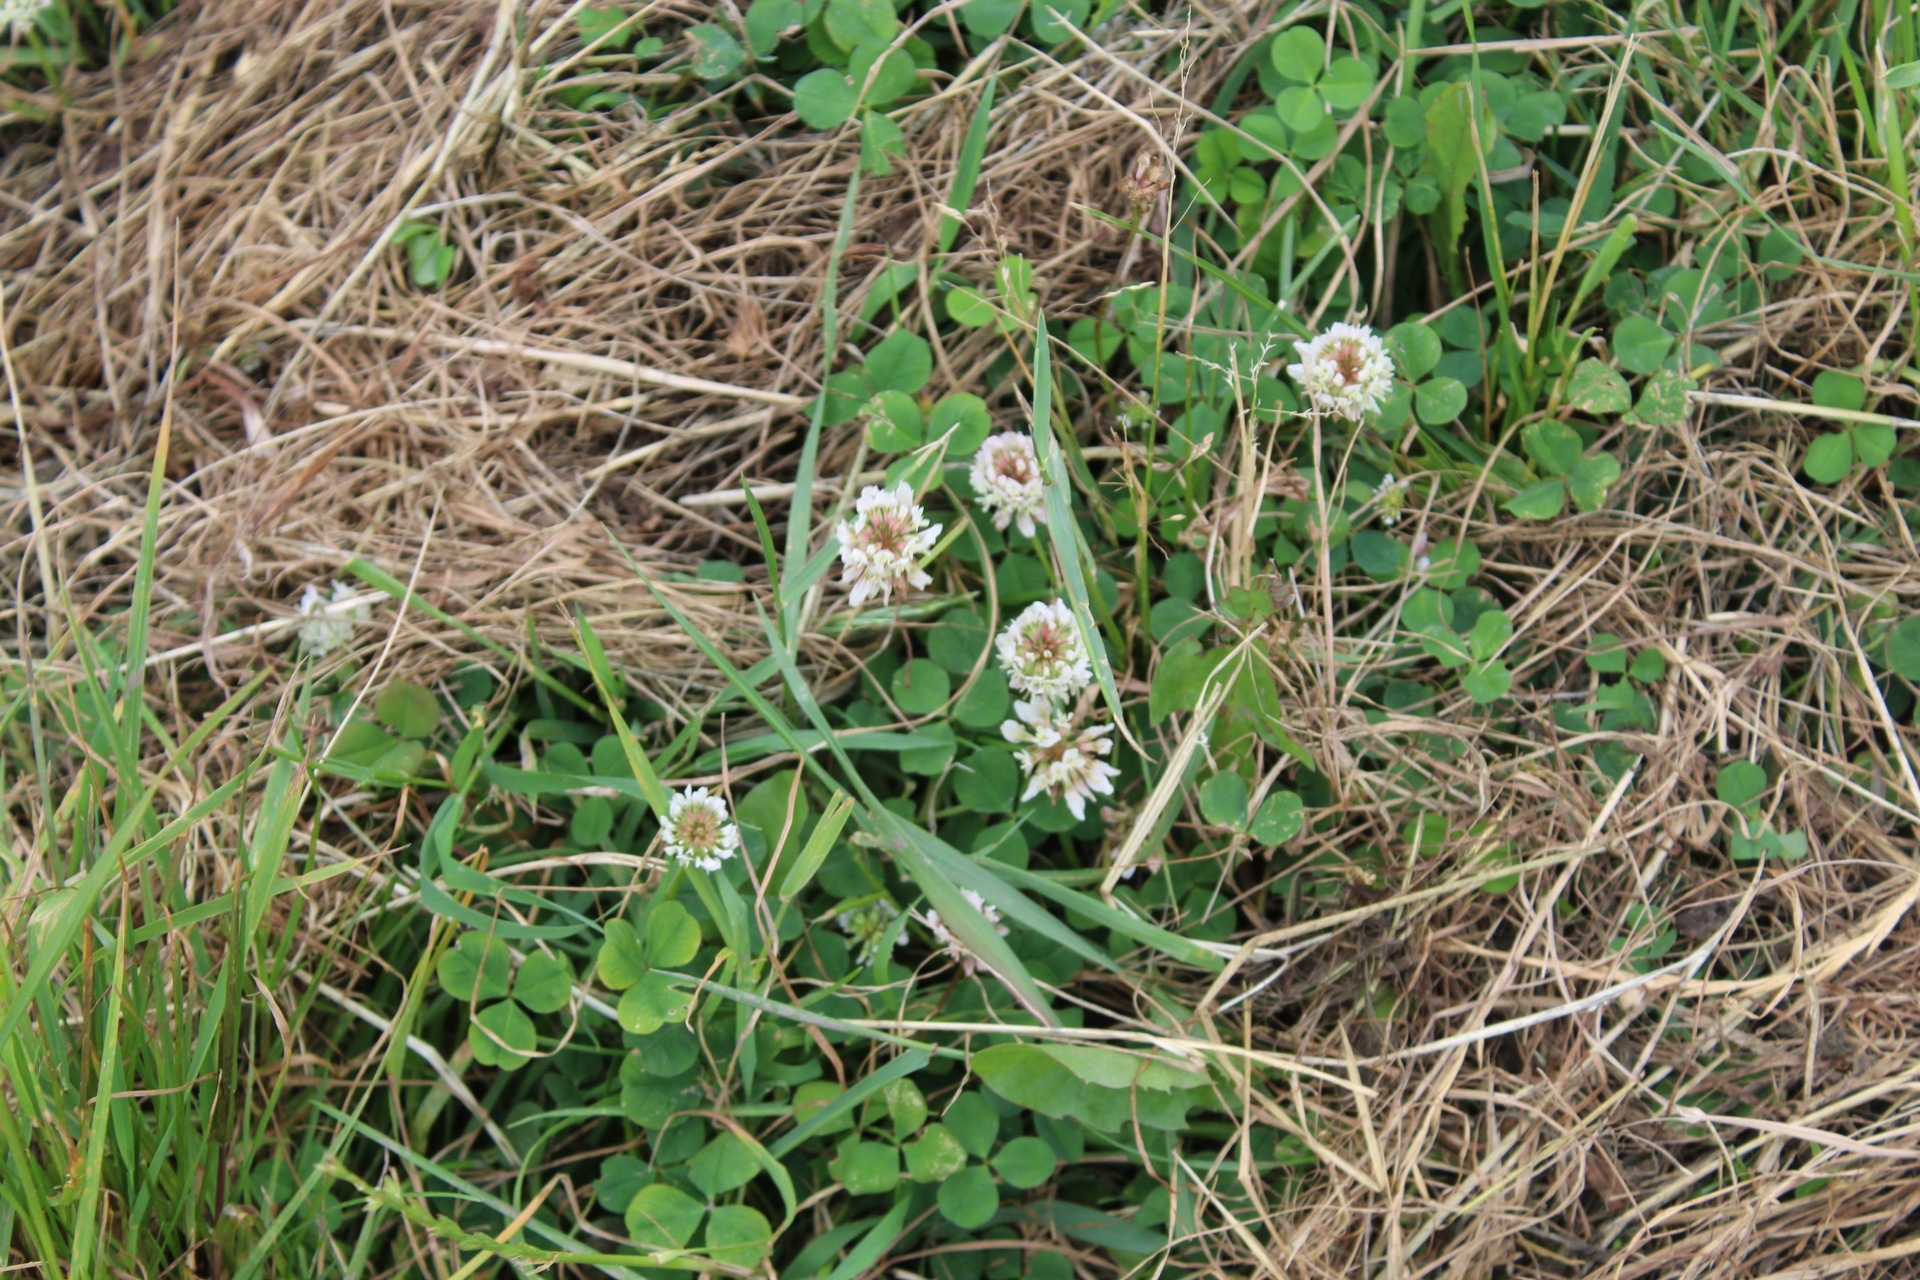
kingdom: Plantae
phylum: Tracheophyta
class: Magnoliopsida
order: Fabales
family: Fabaceae
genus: Trifolium
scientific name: Trifolium repens
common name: White clover
